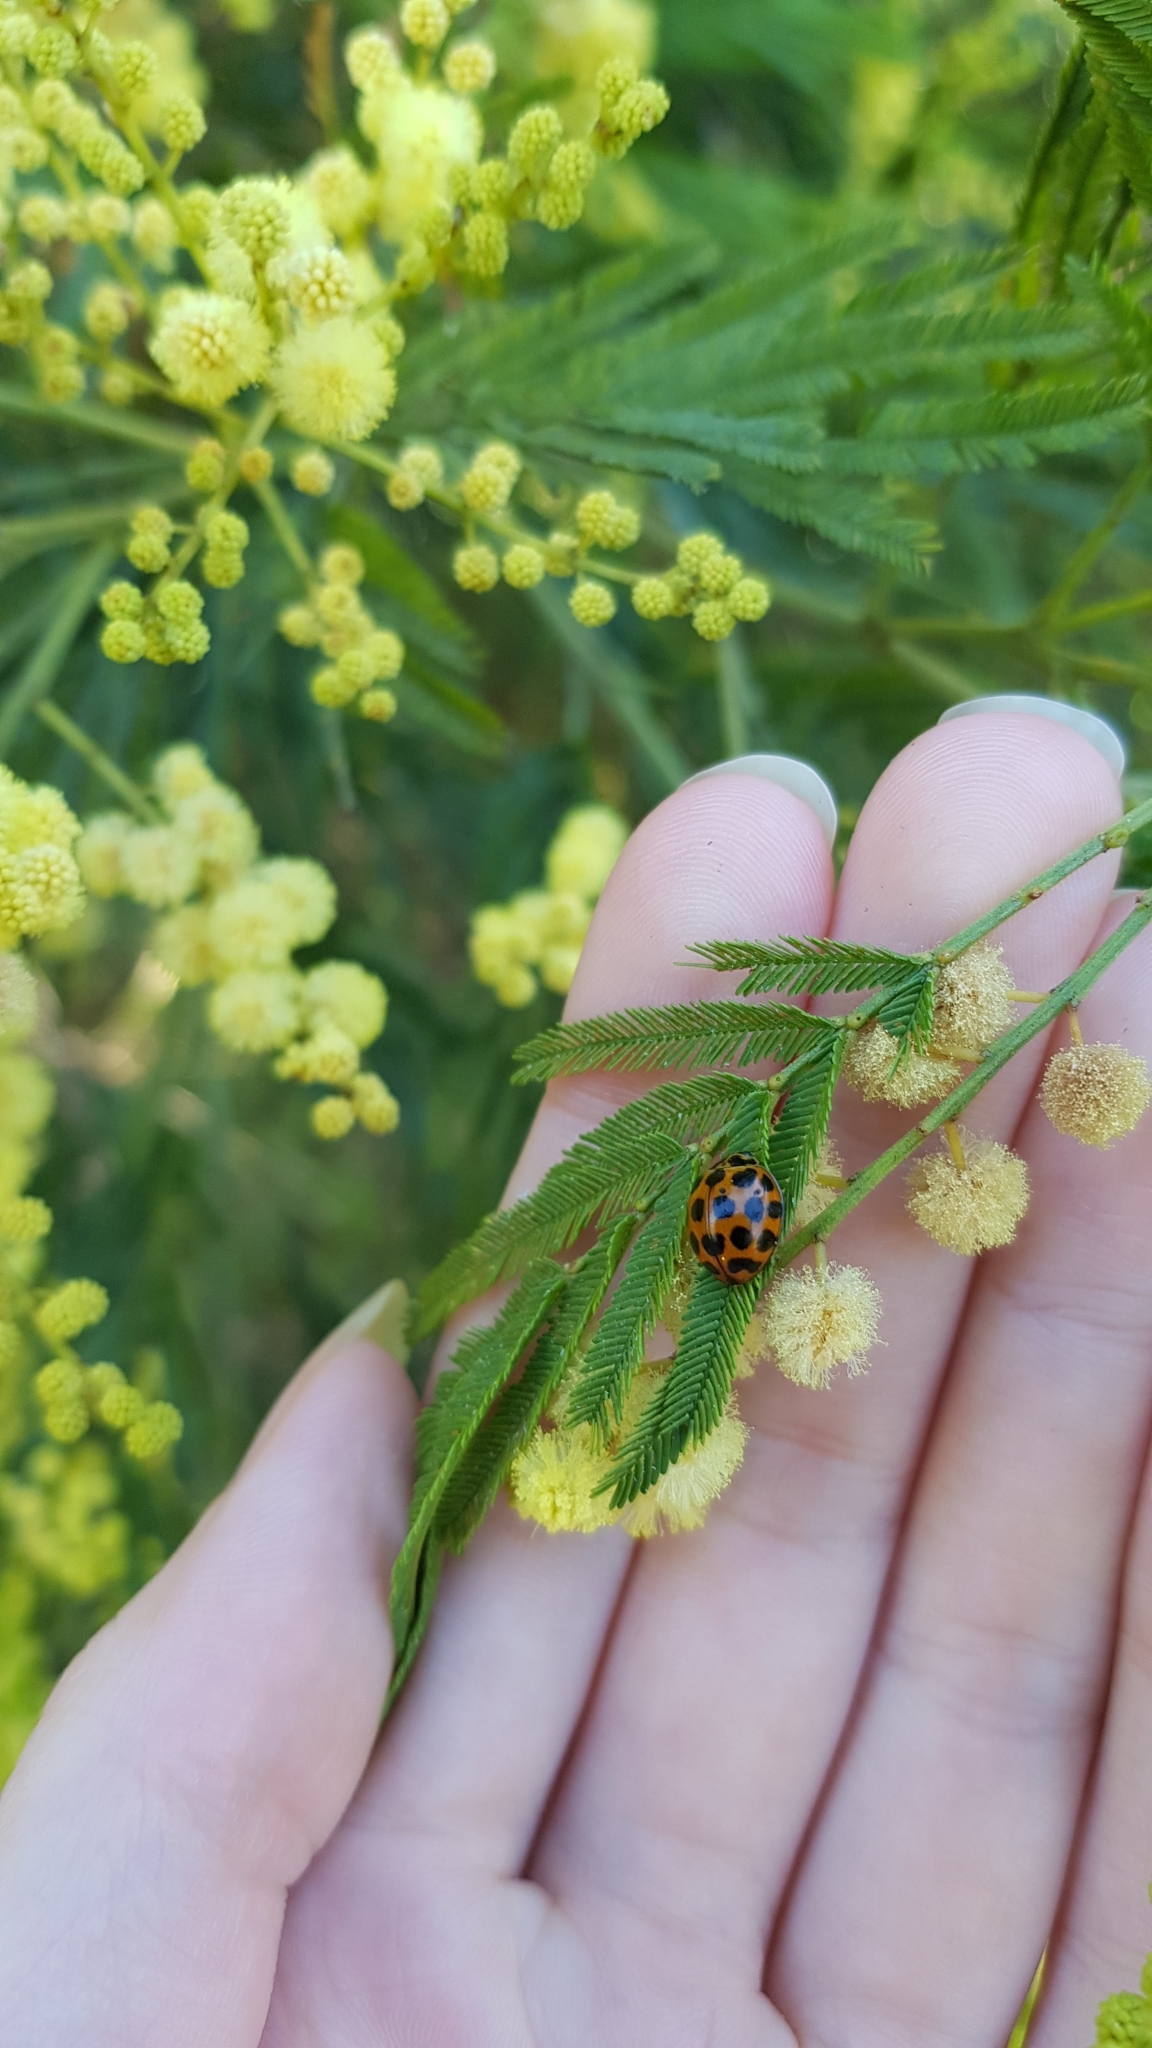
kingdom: Animalia
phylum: Arthropoda
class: Insecta
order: Coleoptera
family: Coccinellidae
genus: Harmonia
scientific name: Harmonia conformis
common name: Common spotted ladybird beetle
